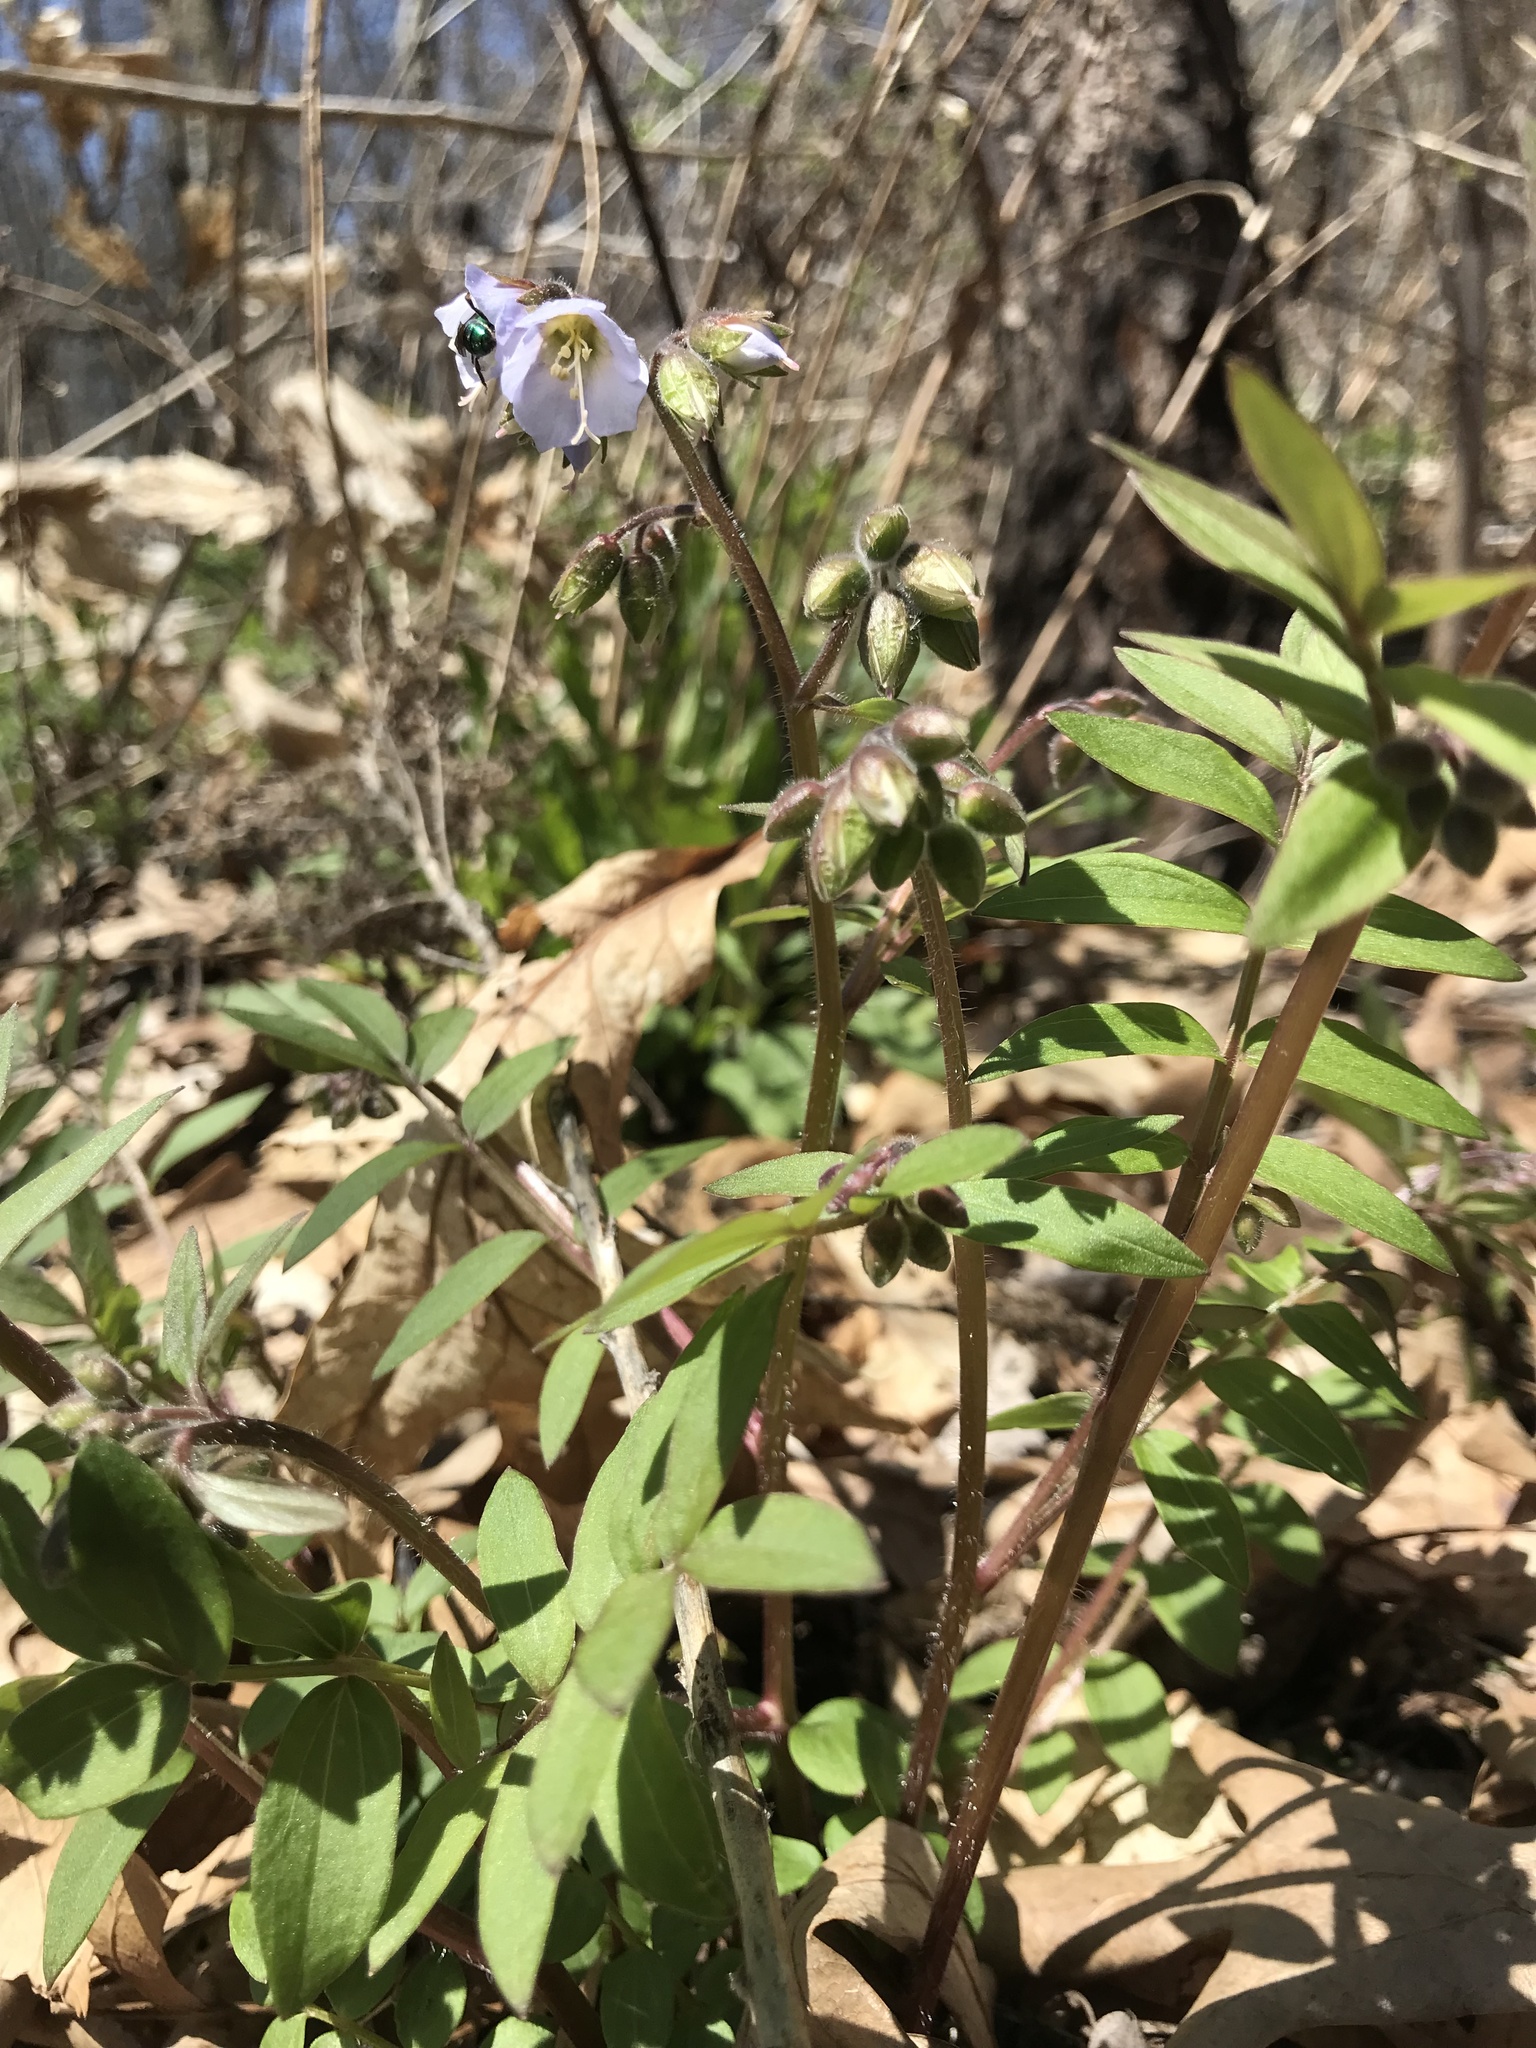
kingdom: Plantae
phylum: Tracheophyta
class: Magnoliopsida
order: Ericales
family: Polemoniaceae
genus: Polemonium
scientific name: Polemonium reptans
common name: Creeping jacob's-ladder
